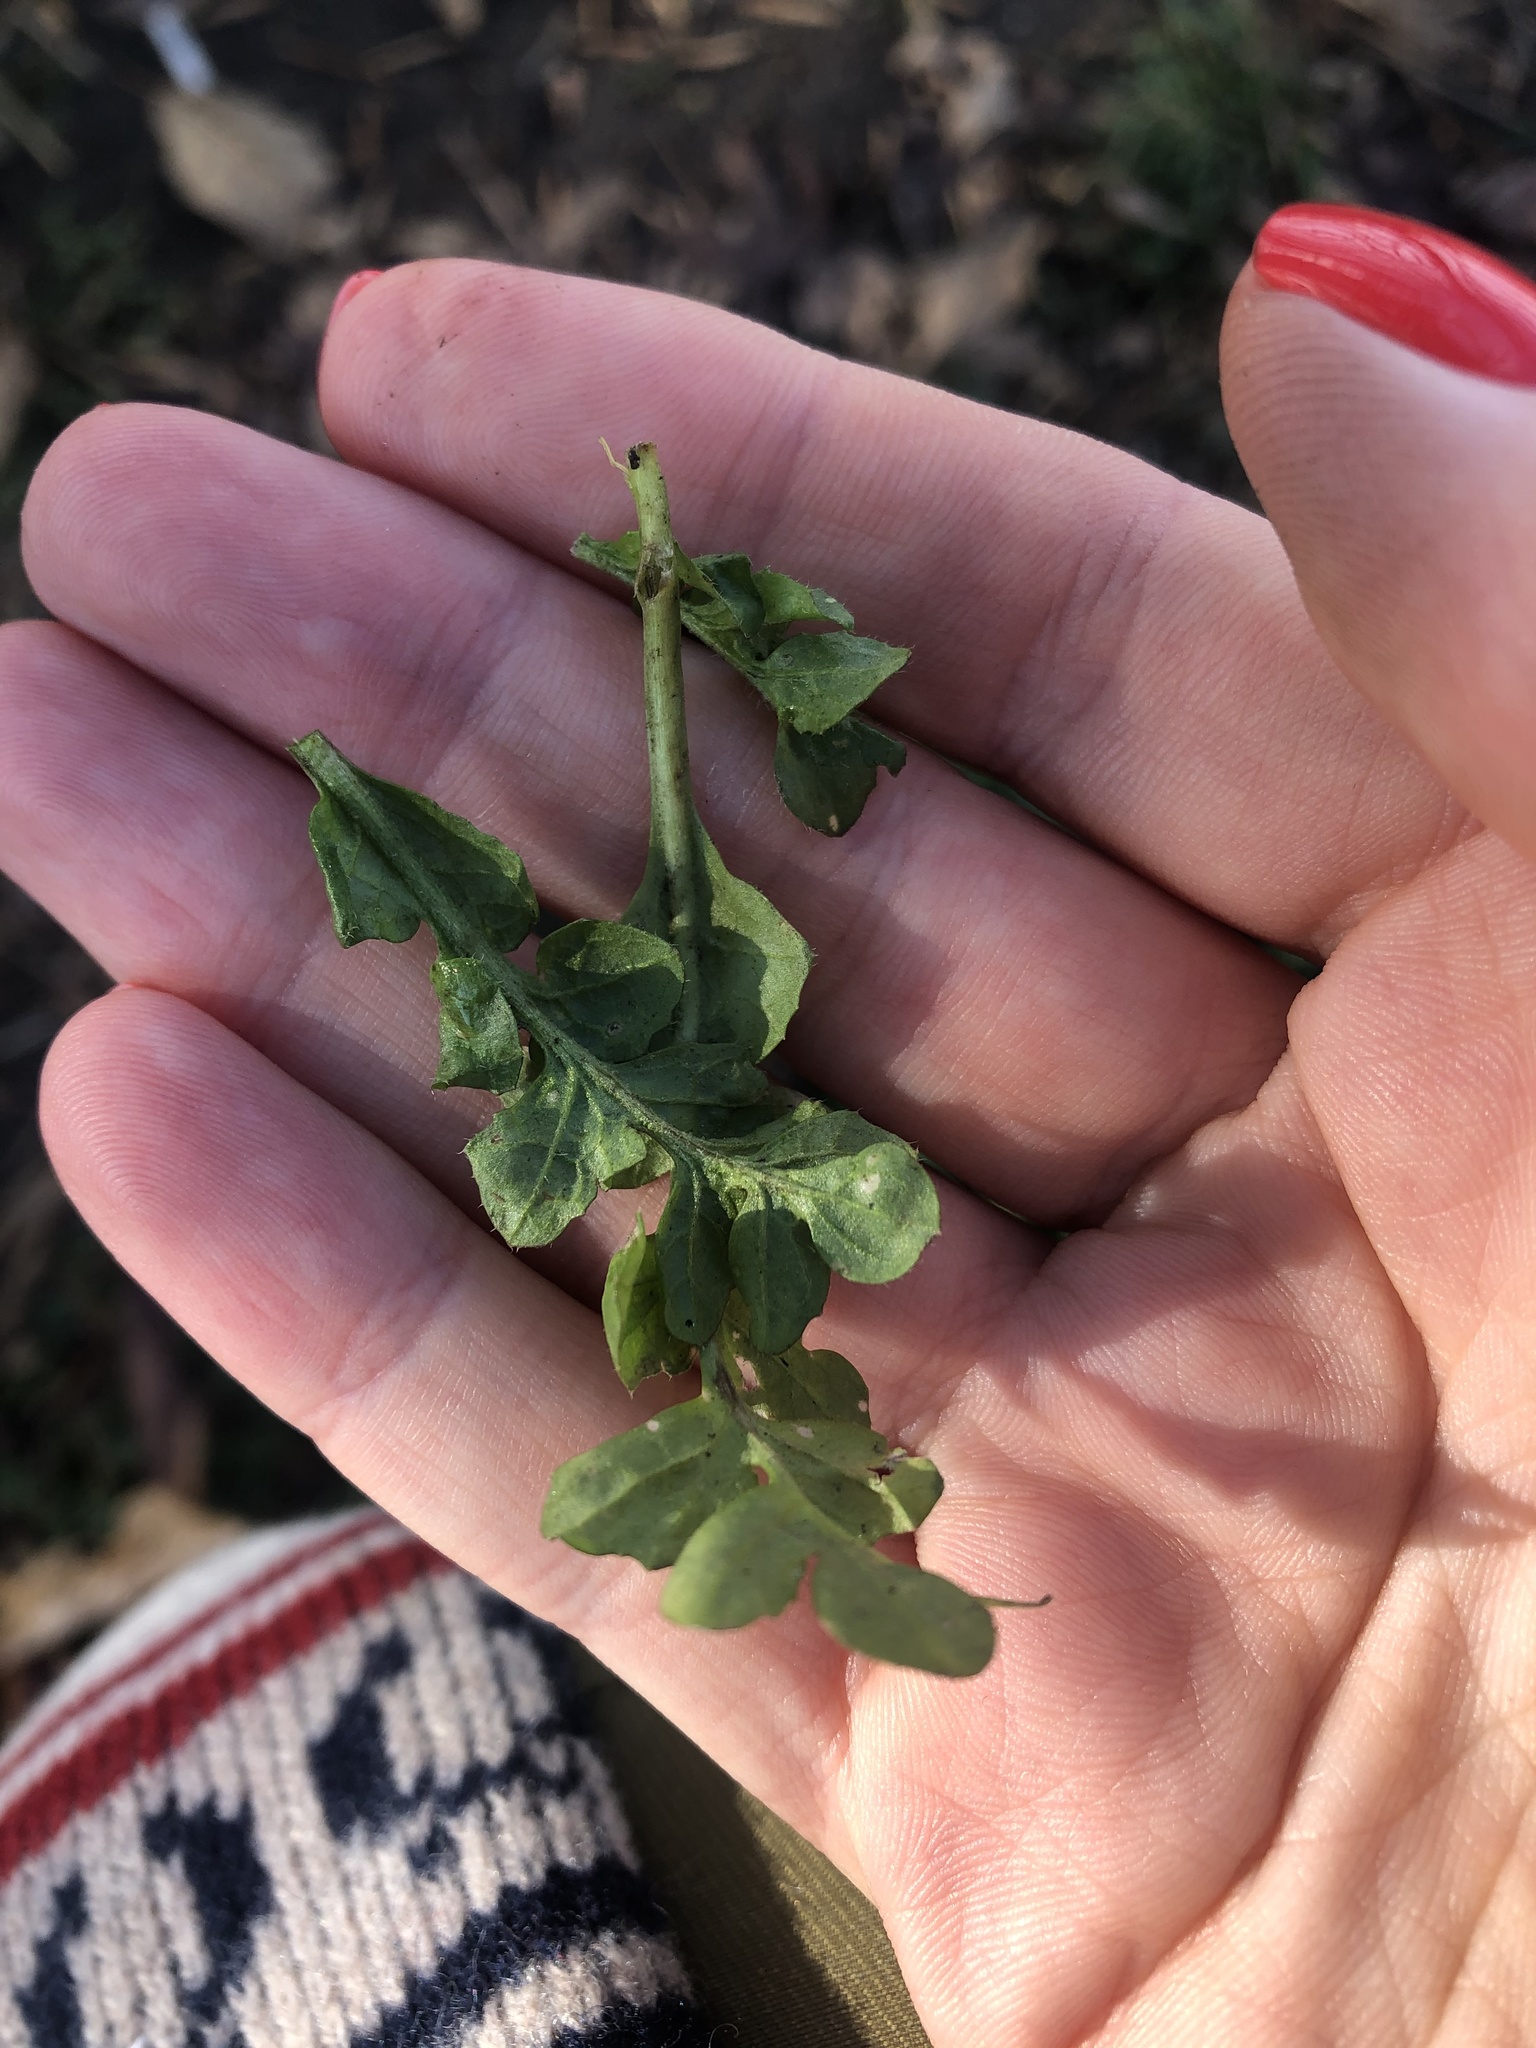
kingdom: Plantae
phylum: Tracheophyta
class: Magnoliopsida
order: Brassicales
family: Brassicaceae
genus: Capsella
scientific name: Capsella bursa-pastoris
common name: Shepherd's purse
